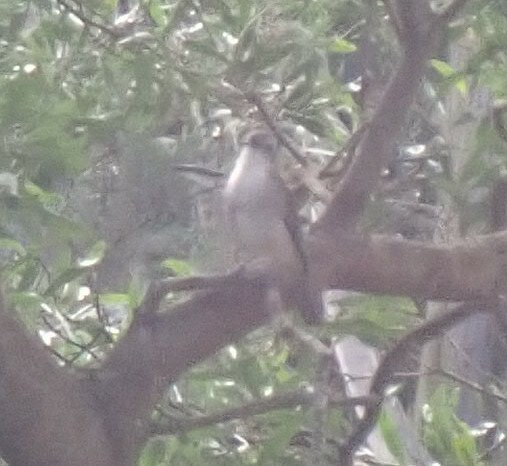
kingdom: Animalia
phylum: Chordata
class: Aves
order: Passeriformes
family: Pachycephalidae
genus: Colluricincla
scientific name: Colluricincla harmonica
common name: Grey shrikethrush
